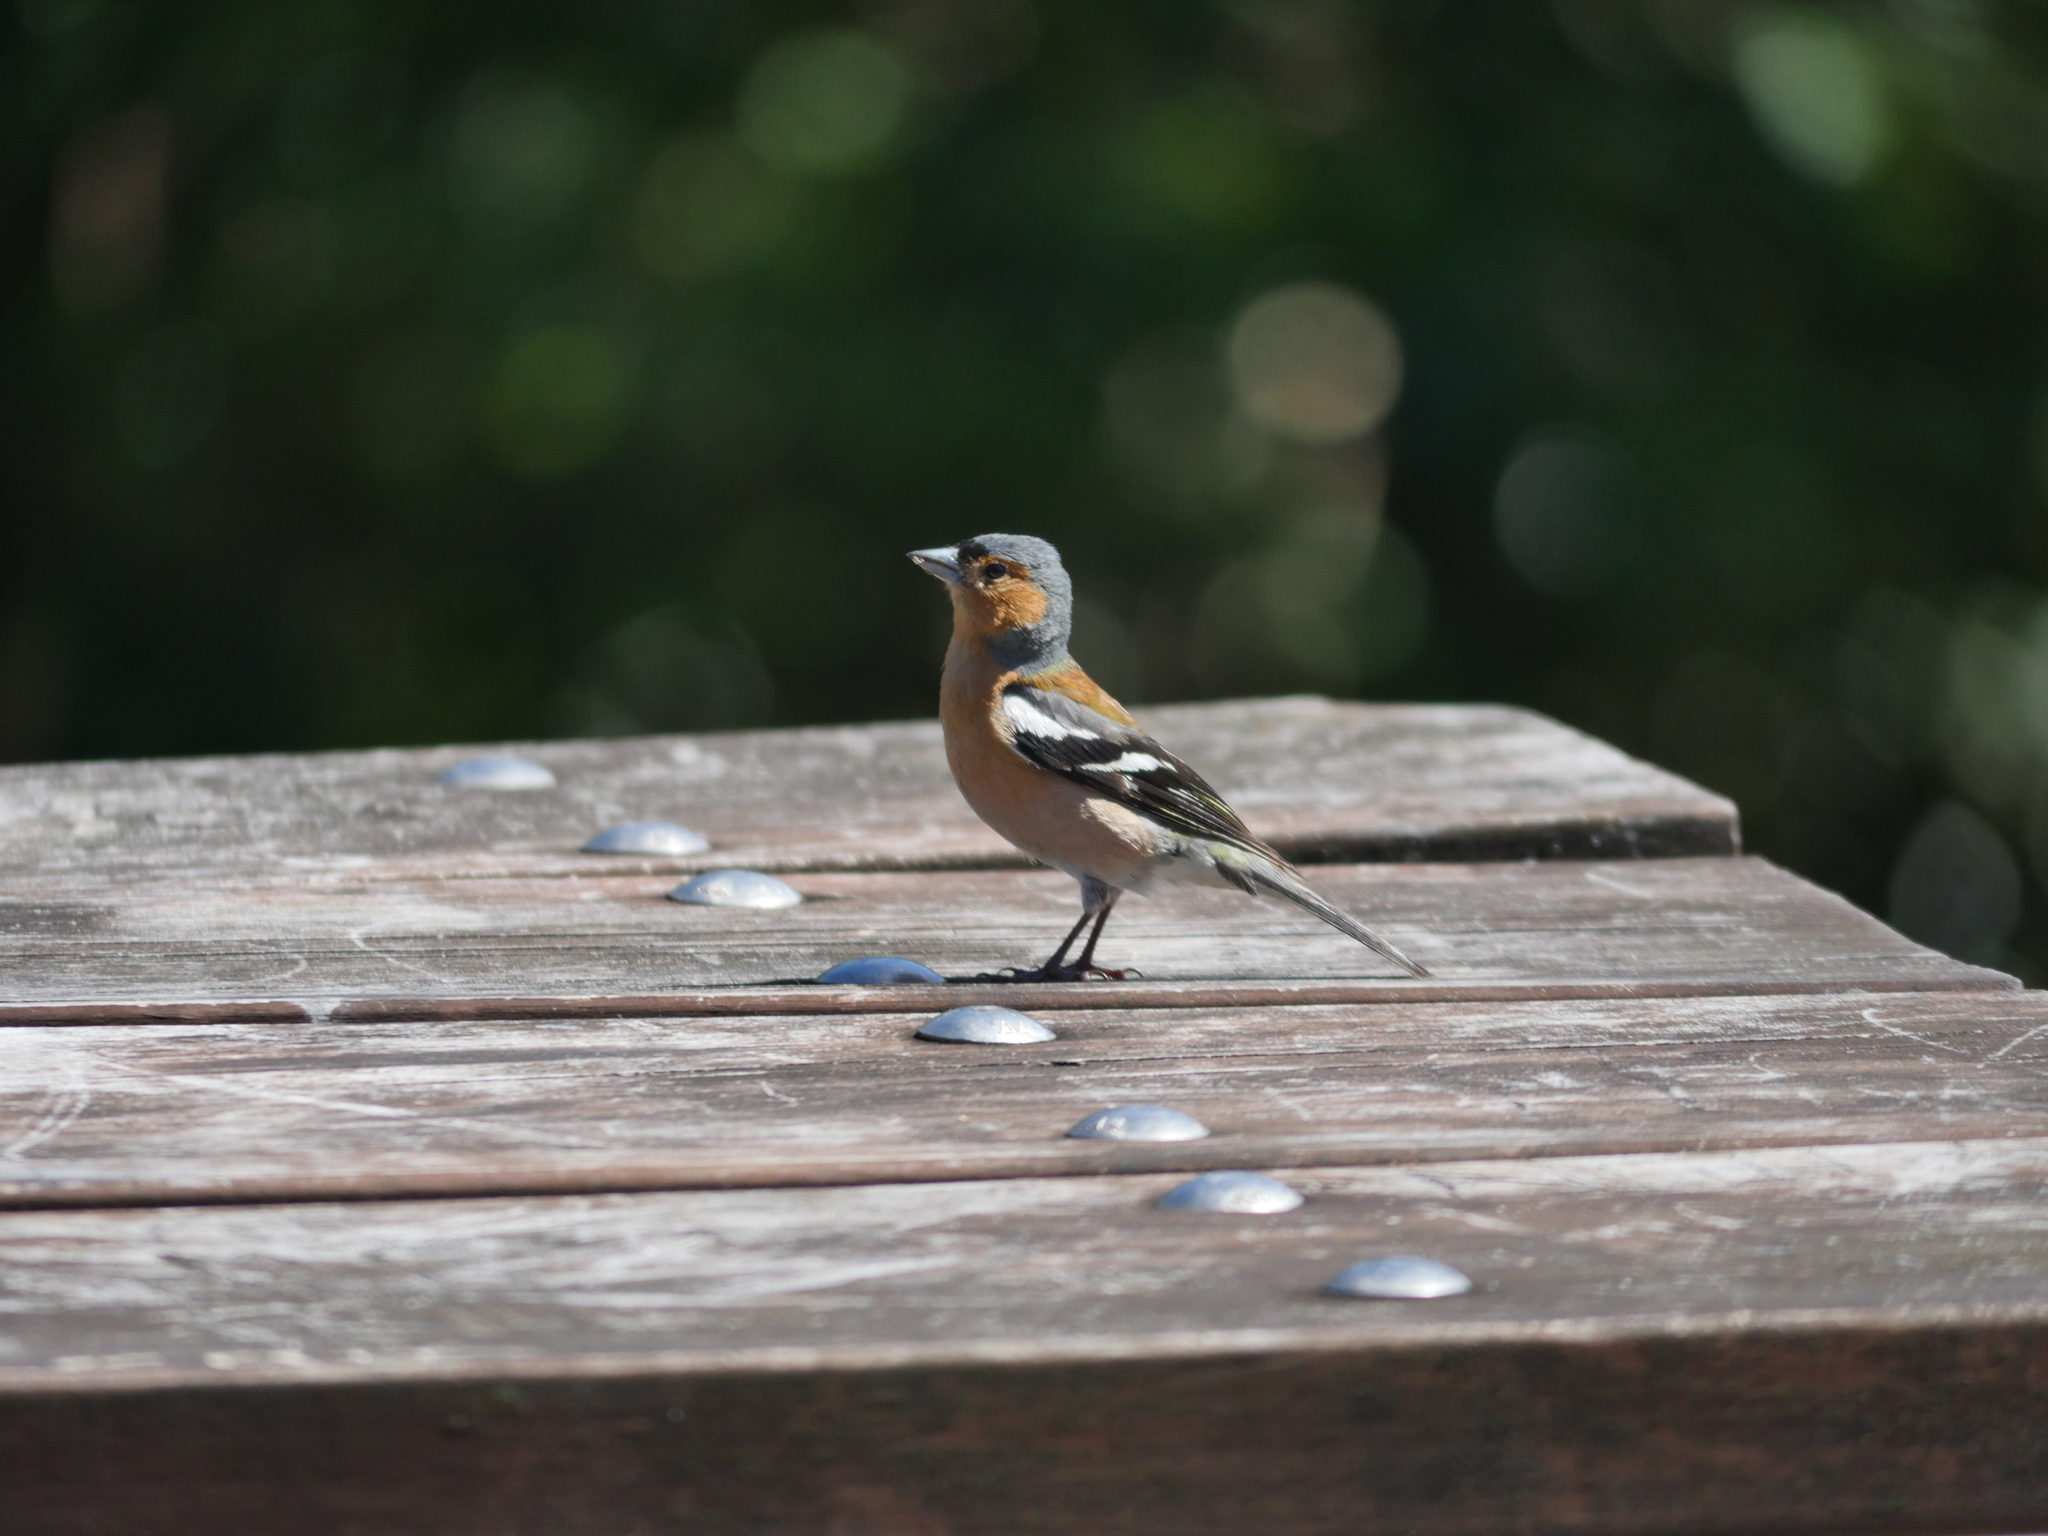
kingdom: Animalia
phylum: Chordata
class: Aves
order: Passeriformes
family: Fringillidae
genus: Fringilla
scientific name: Fringilla coelebs
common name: Common chaffinch
